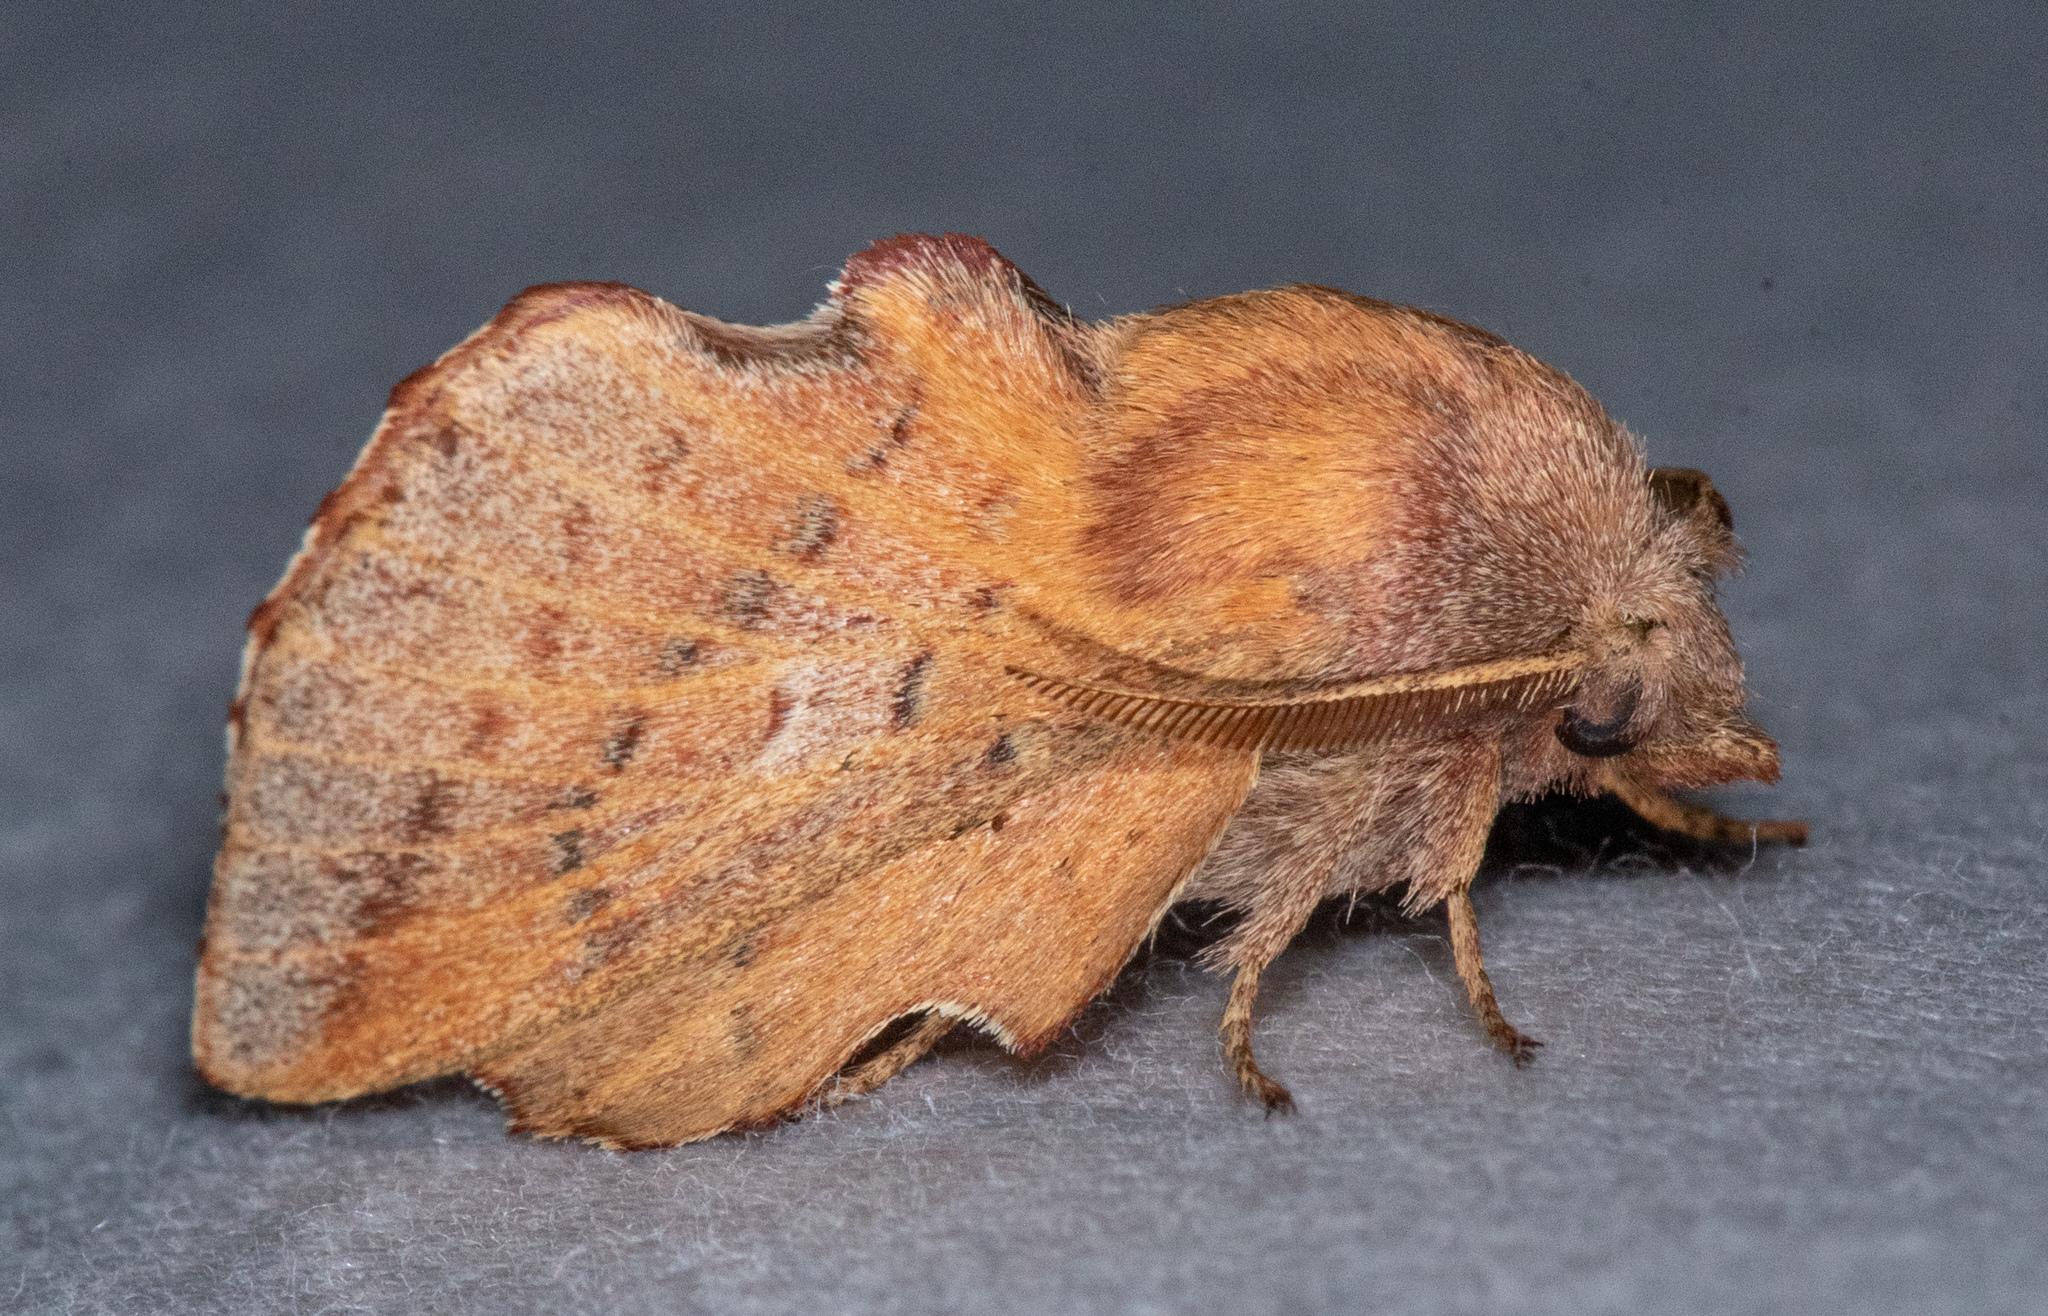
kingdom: Animalia
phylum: Arthropoda
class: Insecta
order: Lepidoptera
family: Lasiocampidae
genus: Phyllodesma
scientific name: Phyllodesma americana
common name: American lappet moth
